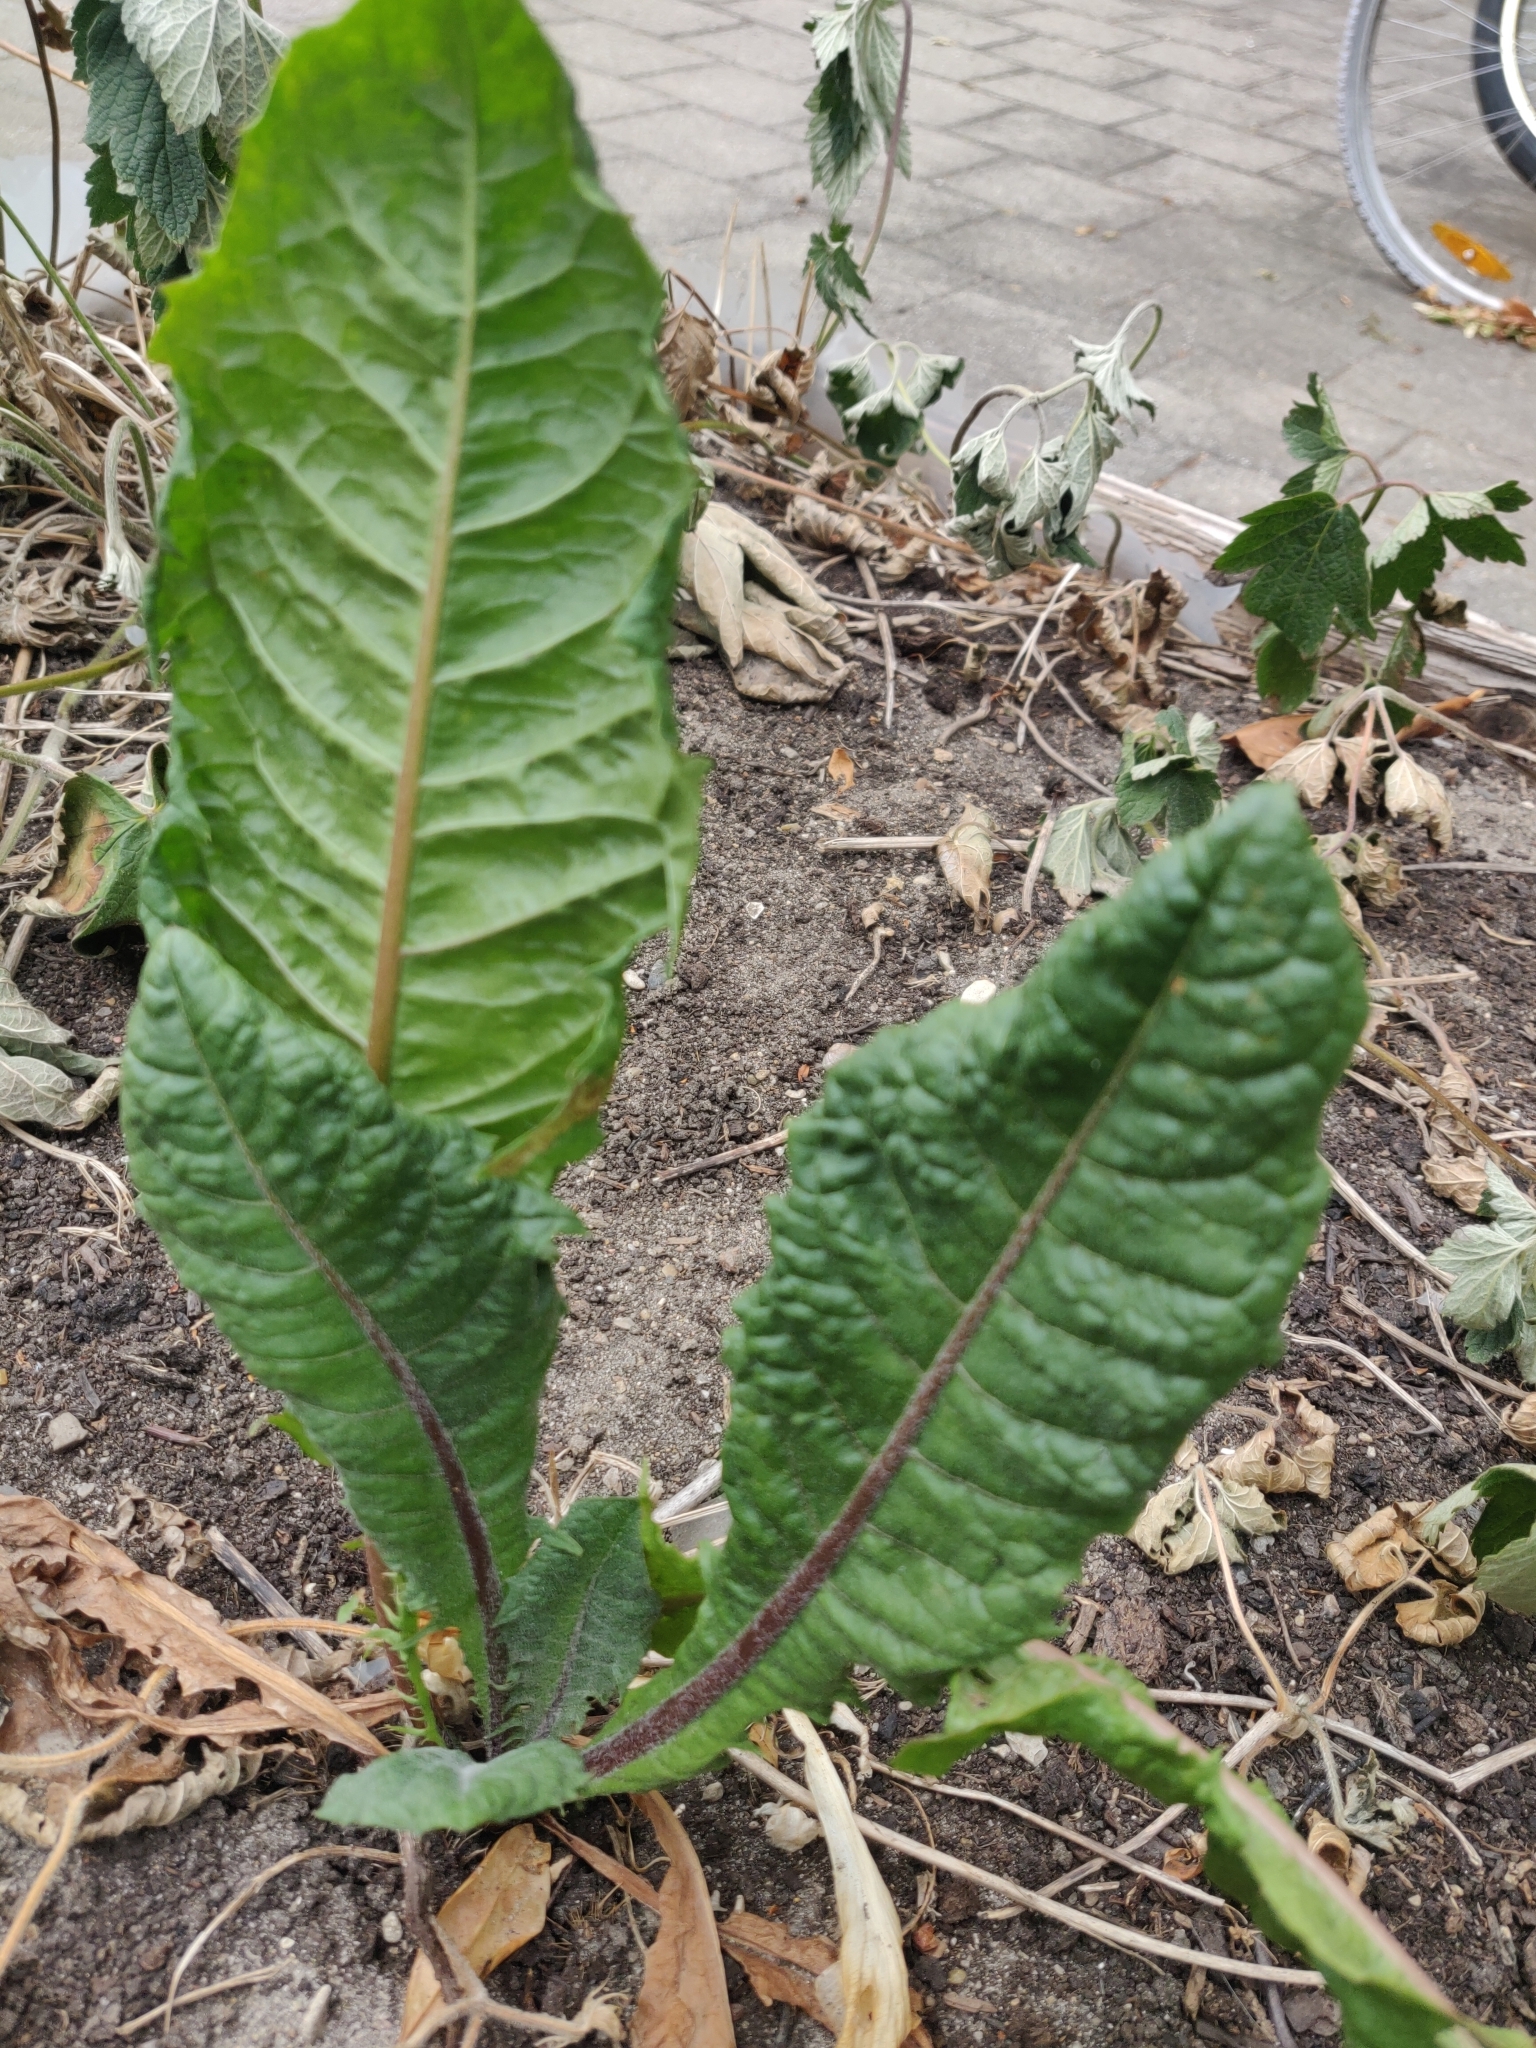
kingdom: Plantae
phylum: Tracheophyta
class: Magnoliopsida
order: Caryophyllales
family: Polygonaceae
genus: Rumex
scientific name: Rumex crispus
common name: Curled dock
